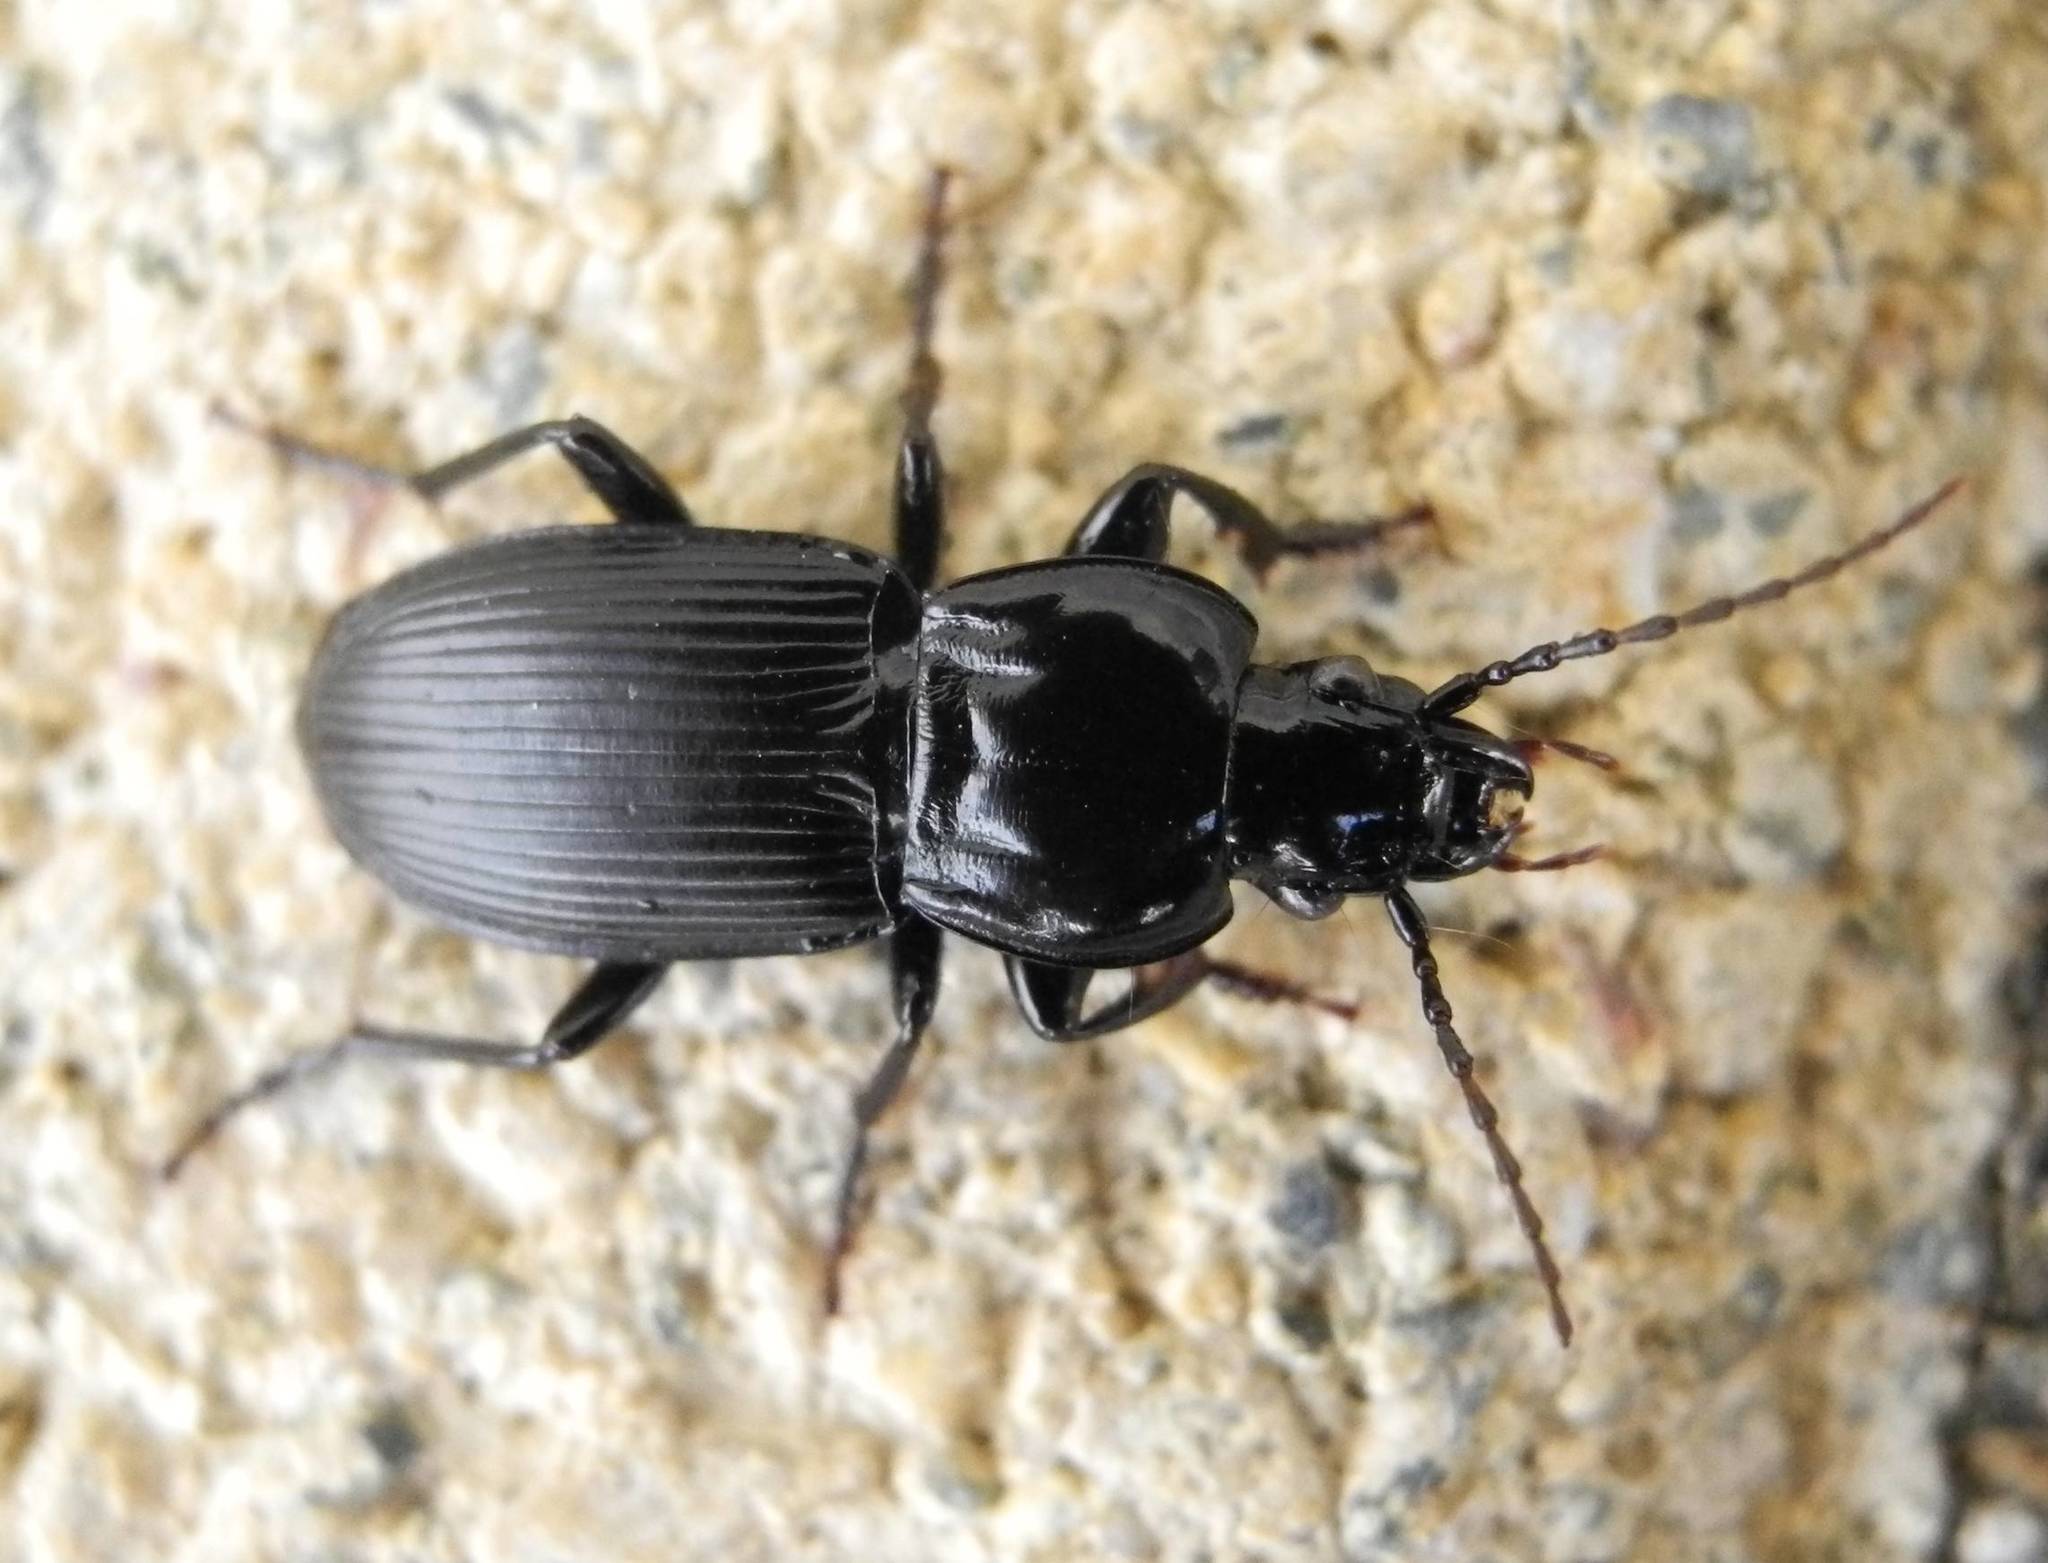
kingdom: Animalia
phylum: Arthropoda
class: Insecta
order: Coleoptera
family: Carabidae
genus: Pterostichus
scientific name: Pterostichus melas
